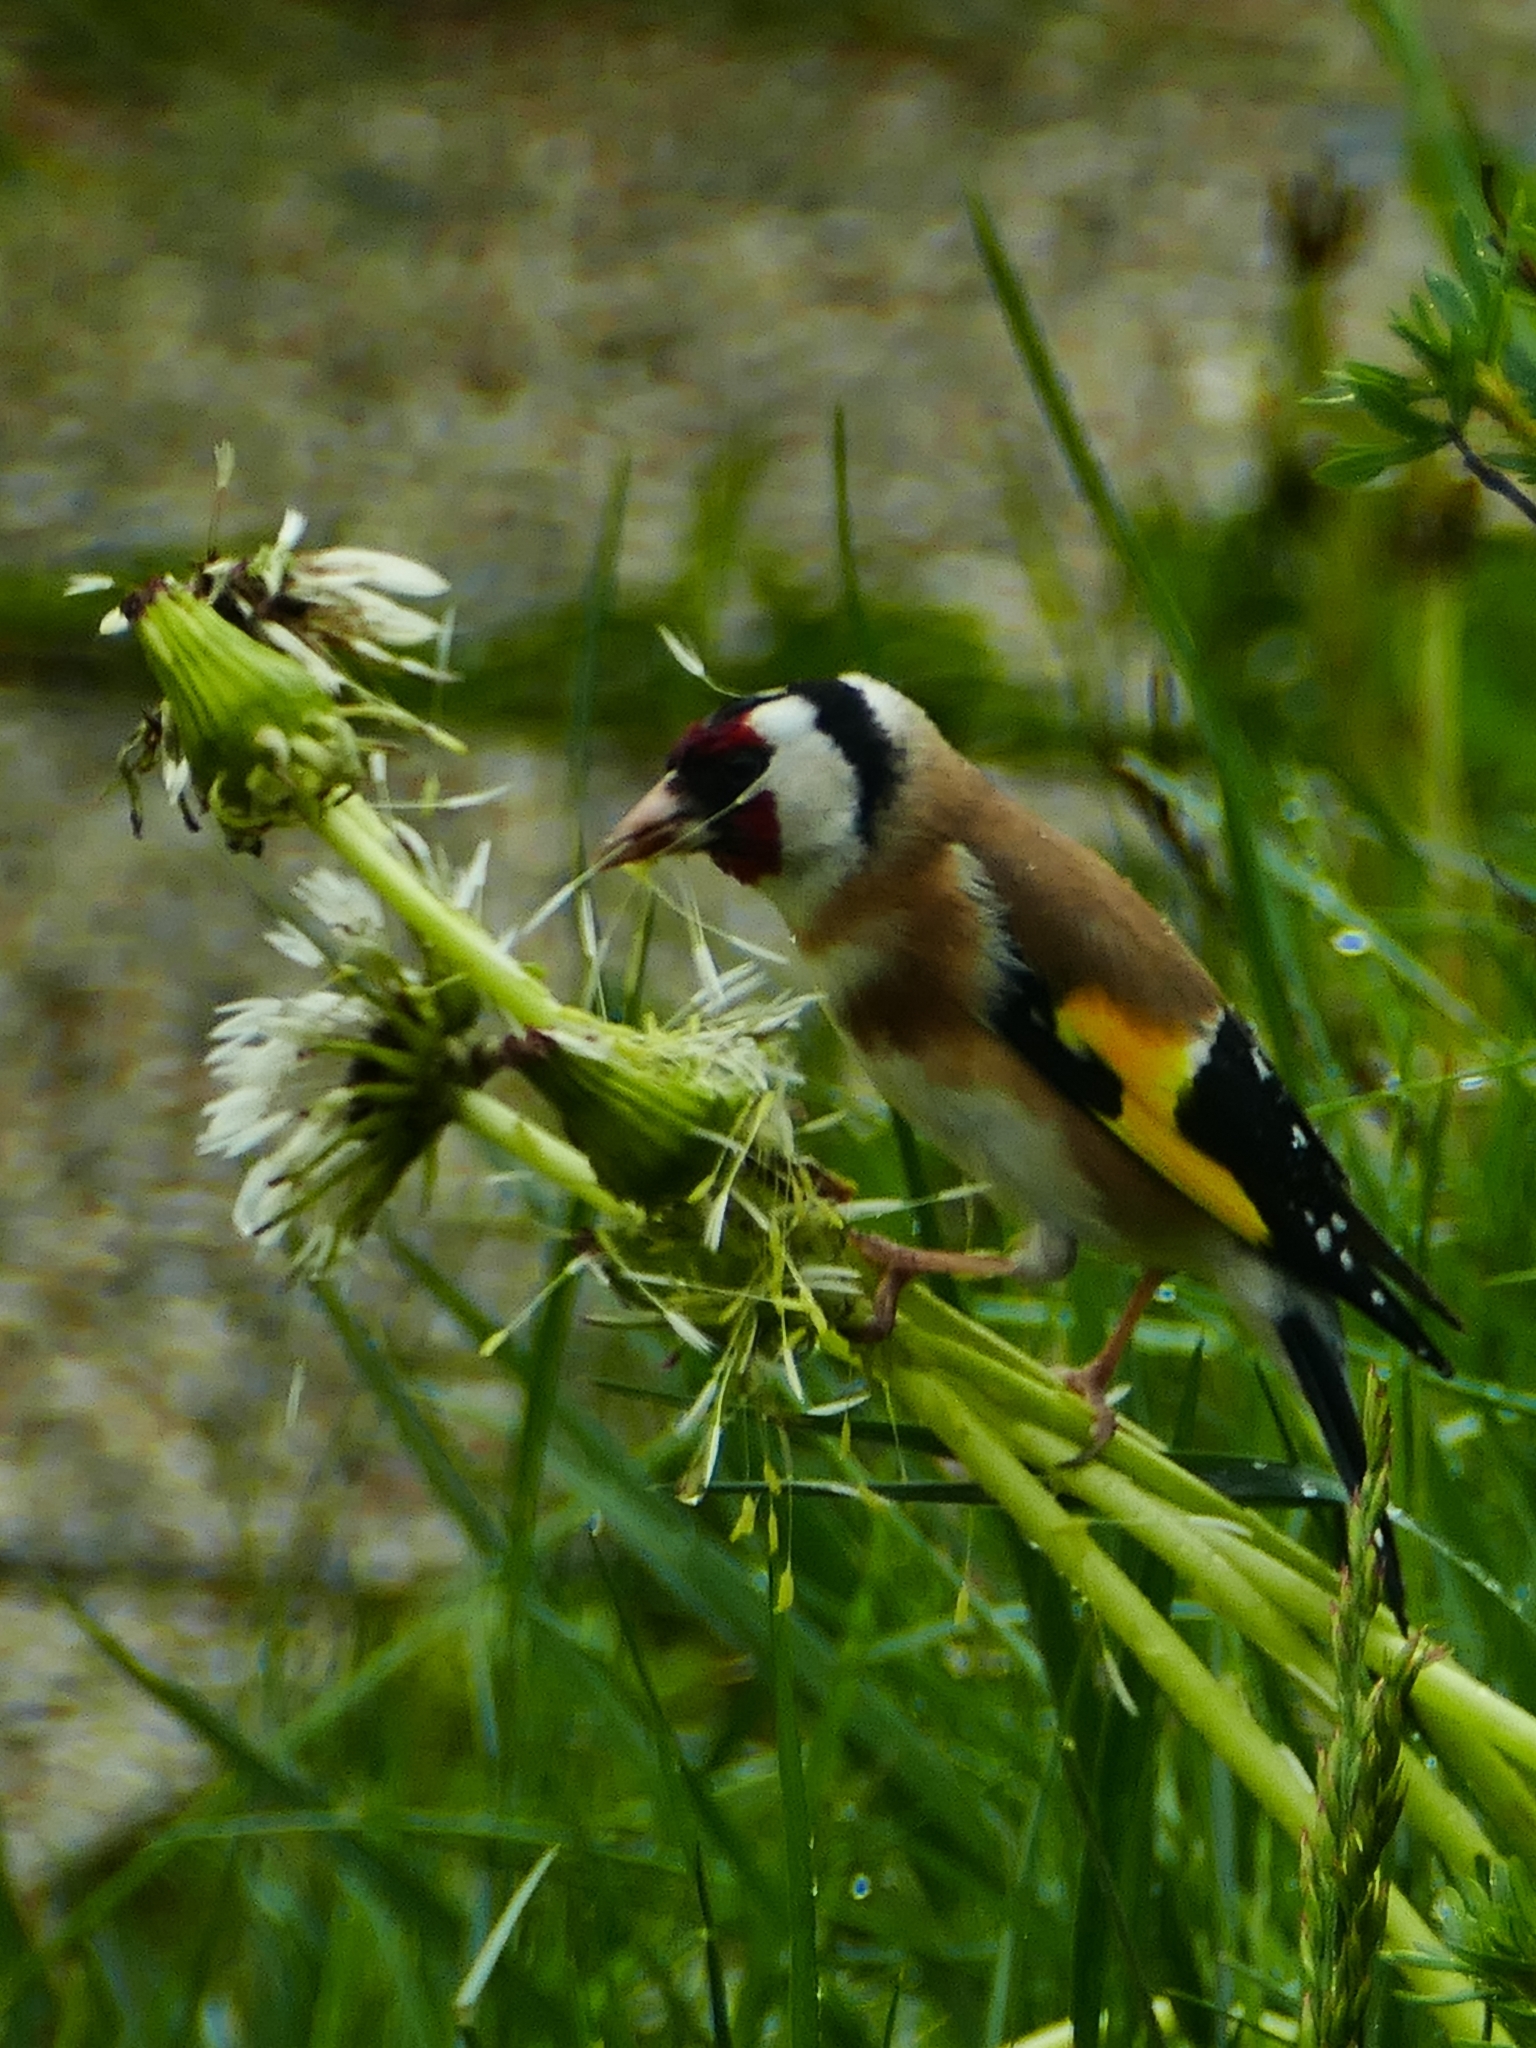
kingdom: Animalia
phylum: Chordata
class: Aves
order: Passeriformes
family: Fringillidae
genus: Carduelis
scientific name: Carduelis carduelis
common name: European goldfinch
